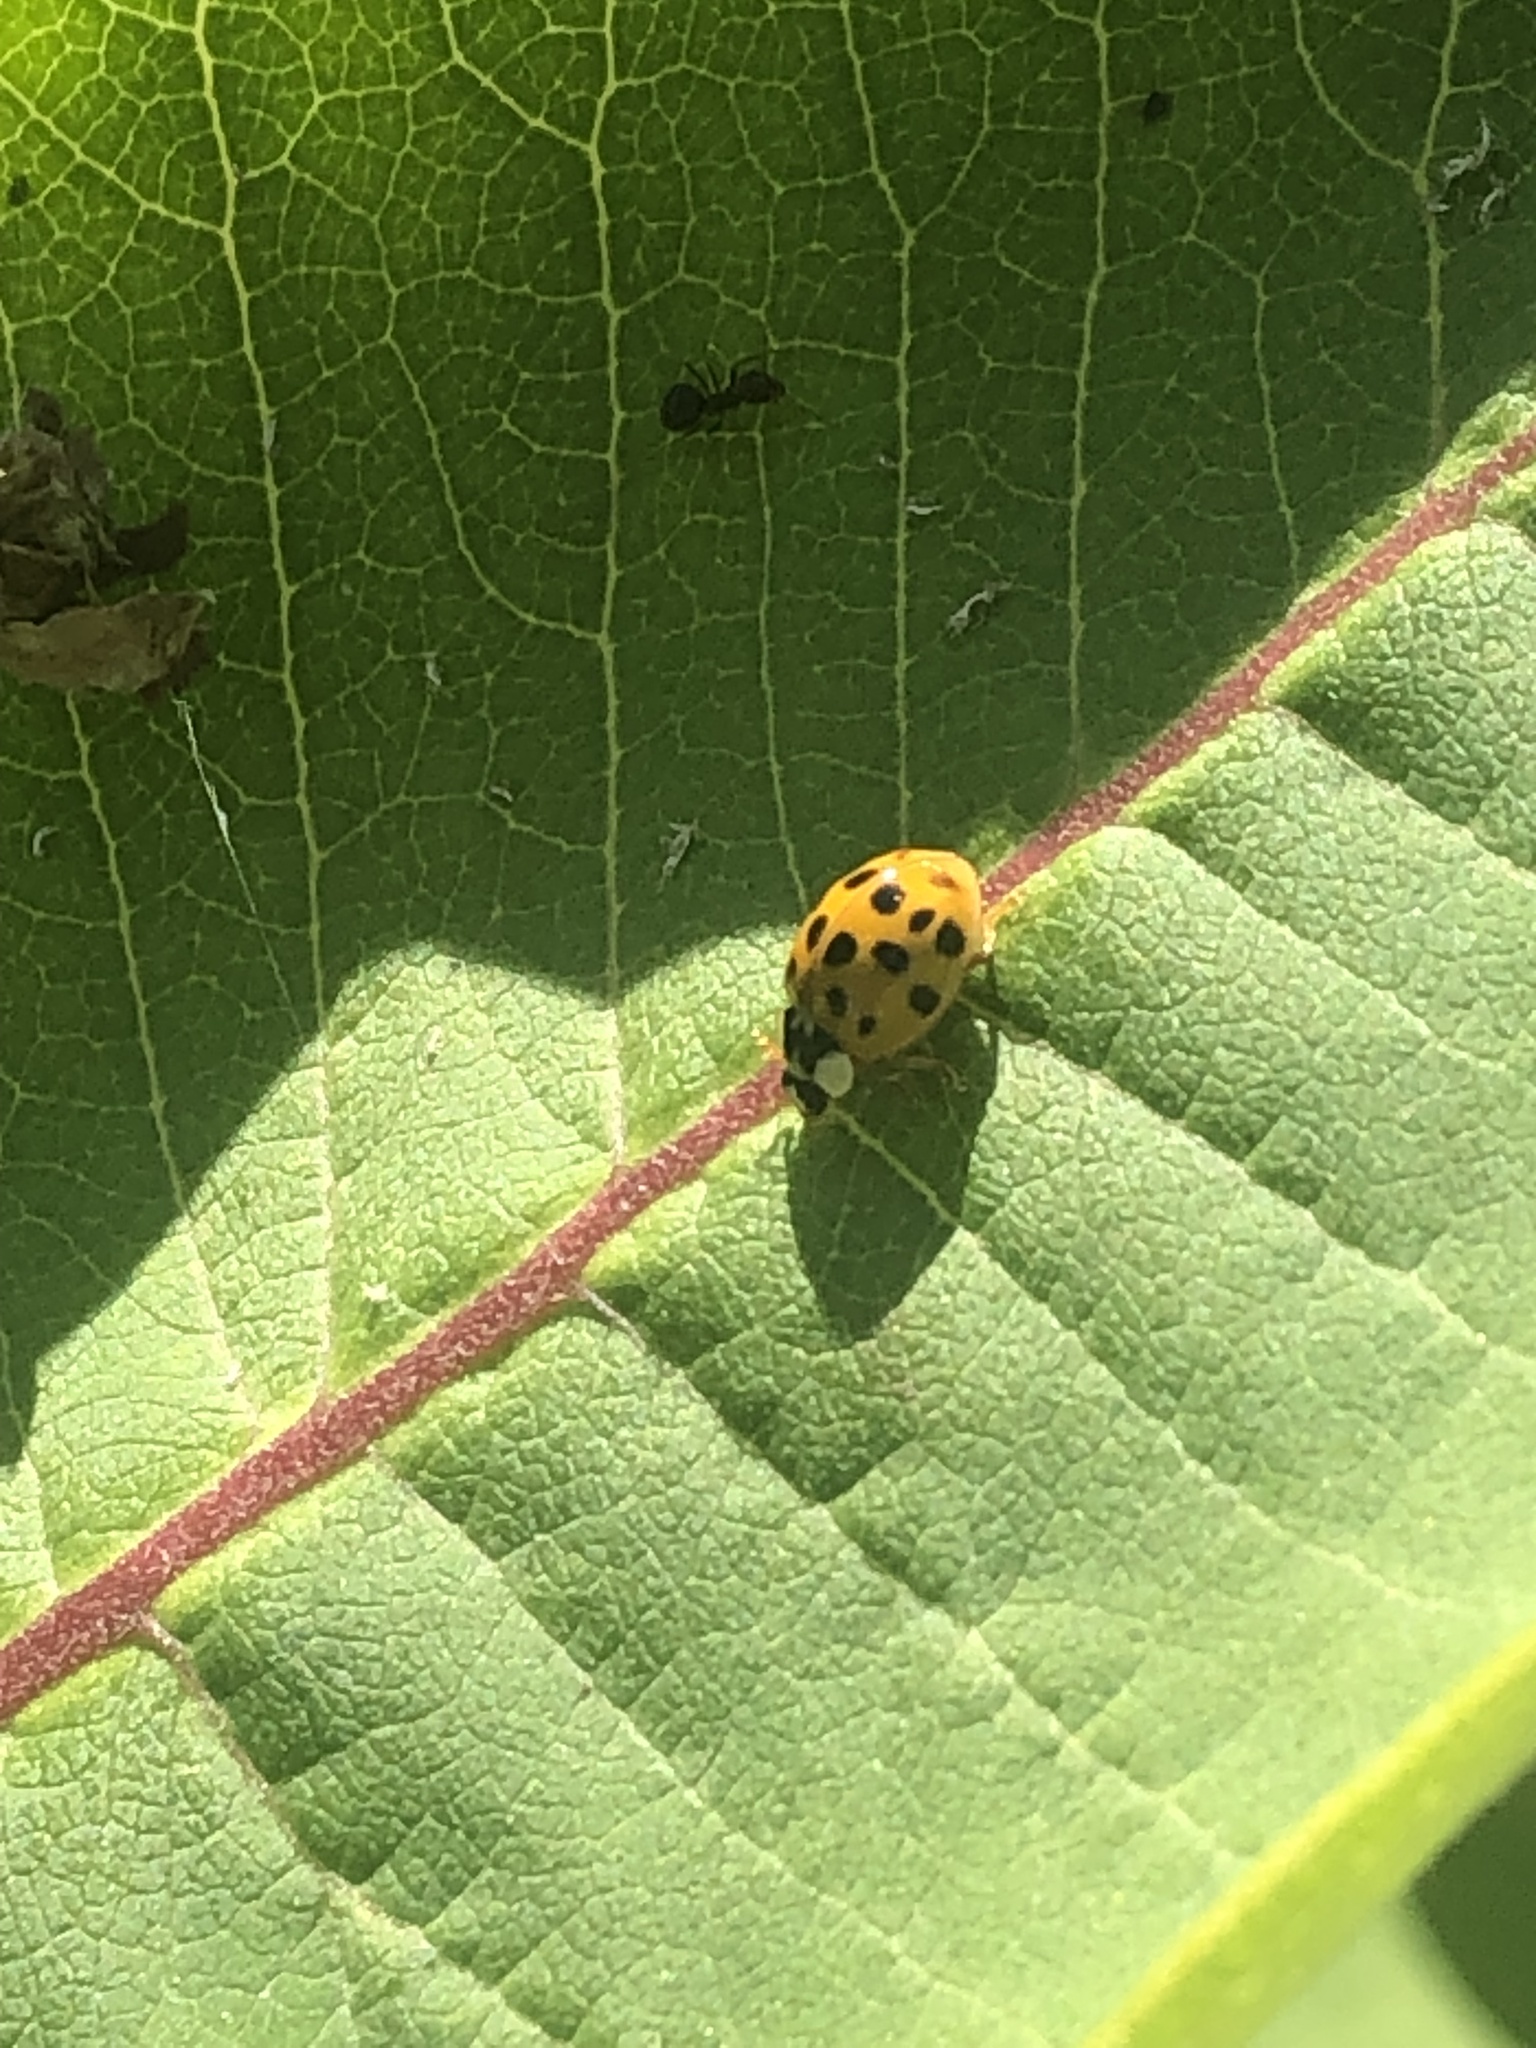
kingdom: Animalia
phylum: Arthropoda
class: Insecta
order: Coleoptera
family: Coccinellidae
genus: Harmonia
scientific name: Harmonia axyridis
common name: Harlequin ladybird
